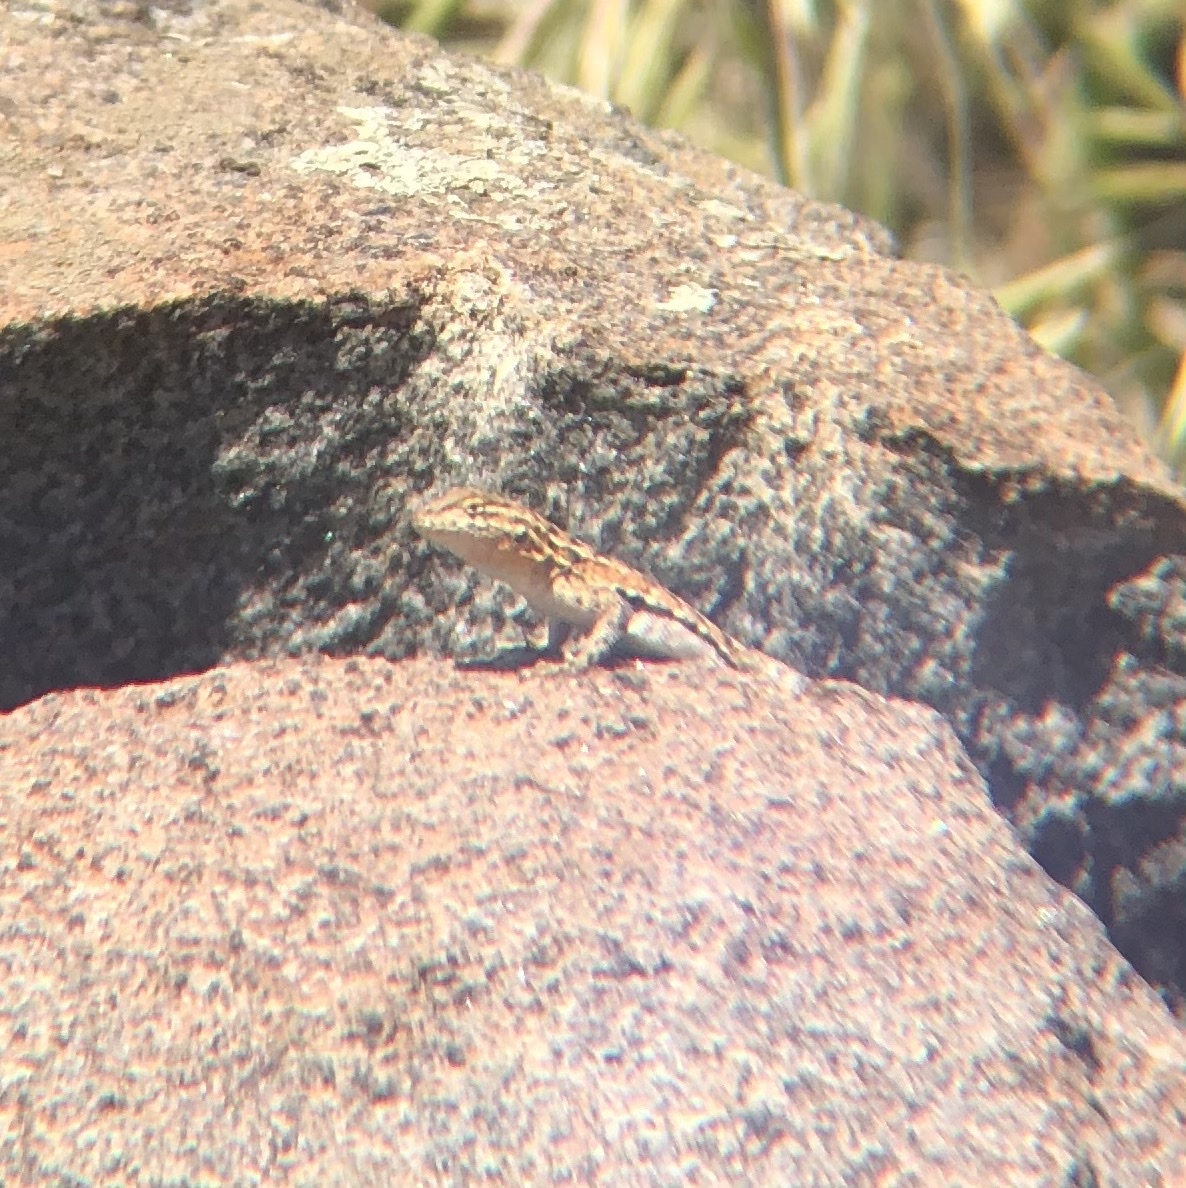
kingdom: Animalia
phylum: Chordata
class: Squamata
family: Phrynosomatidae
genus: Uta
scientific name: Uta stansburiana
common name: Side-blotched lizard
